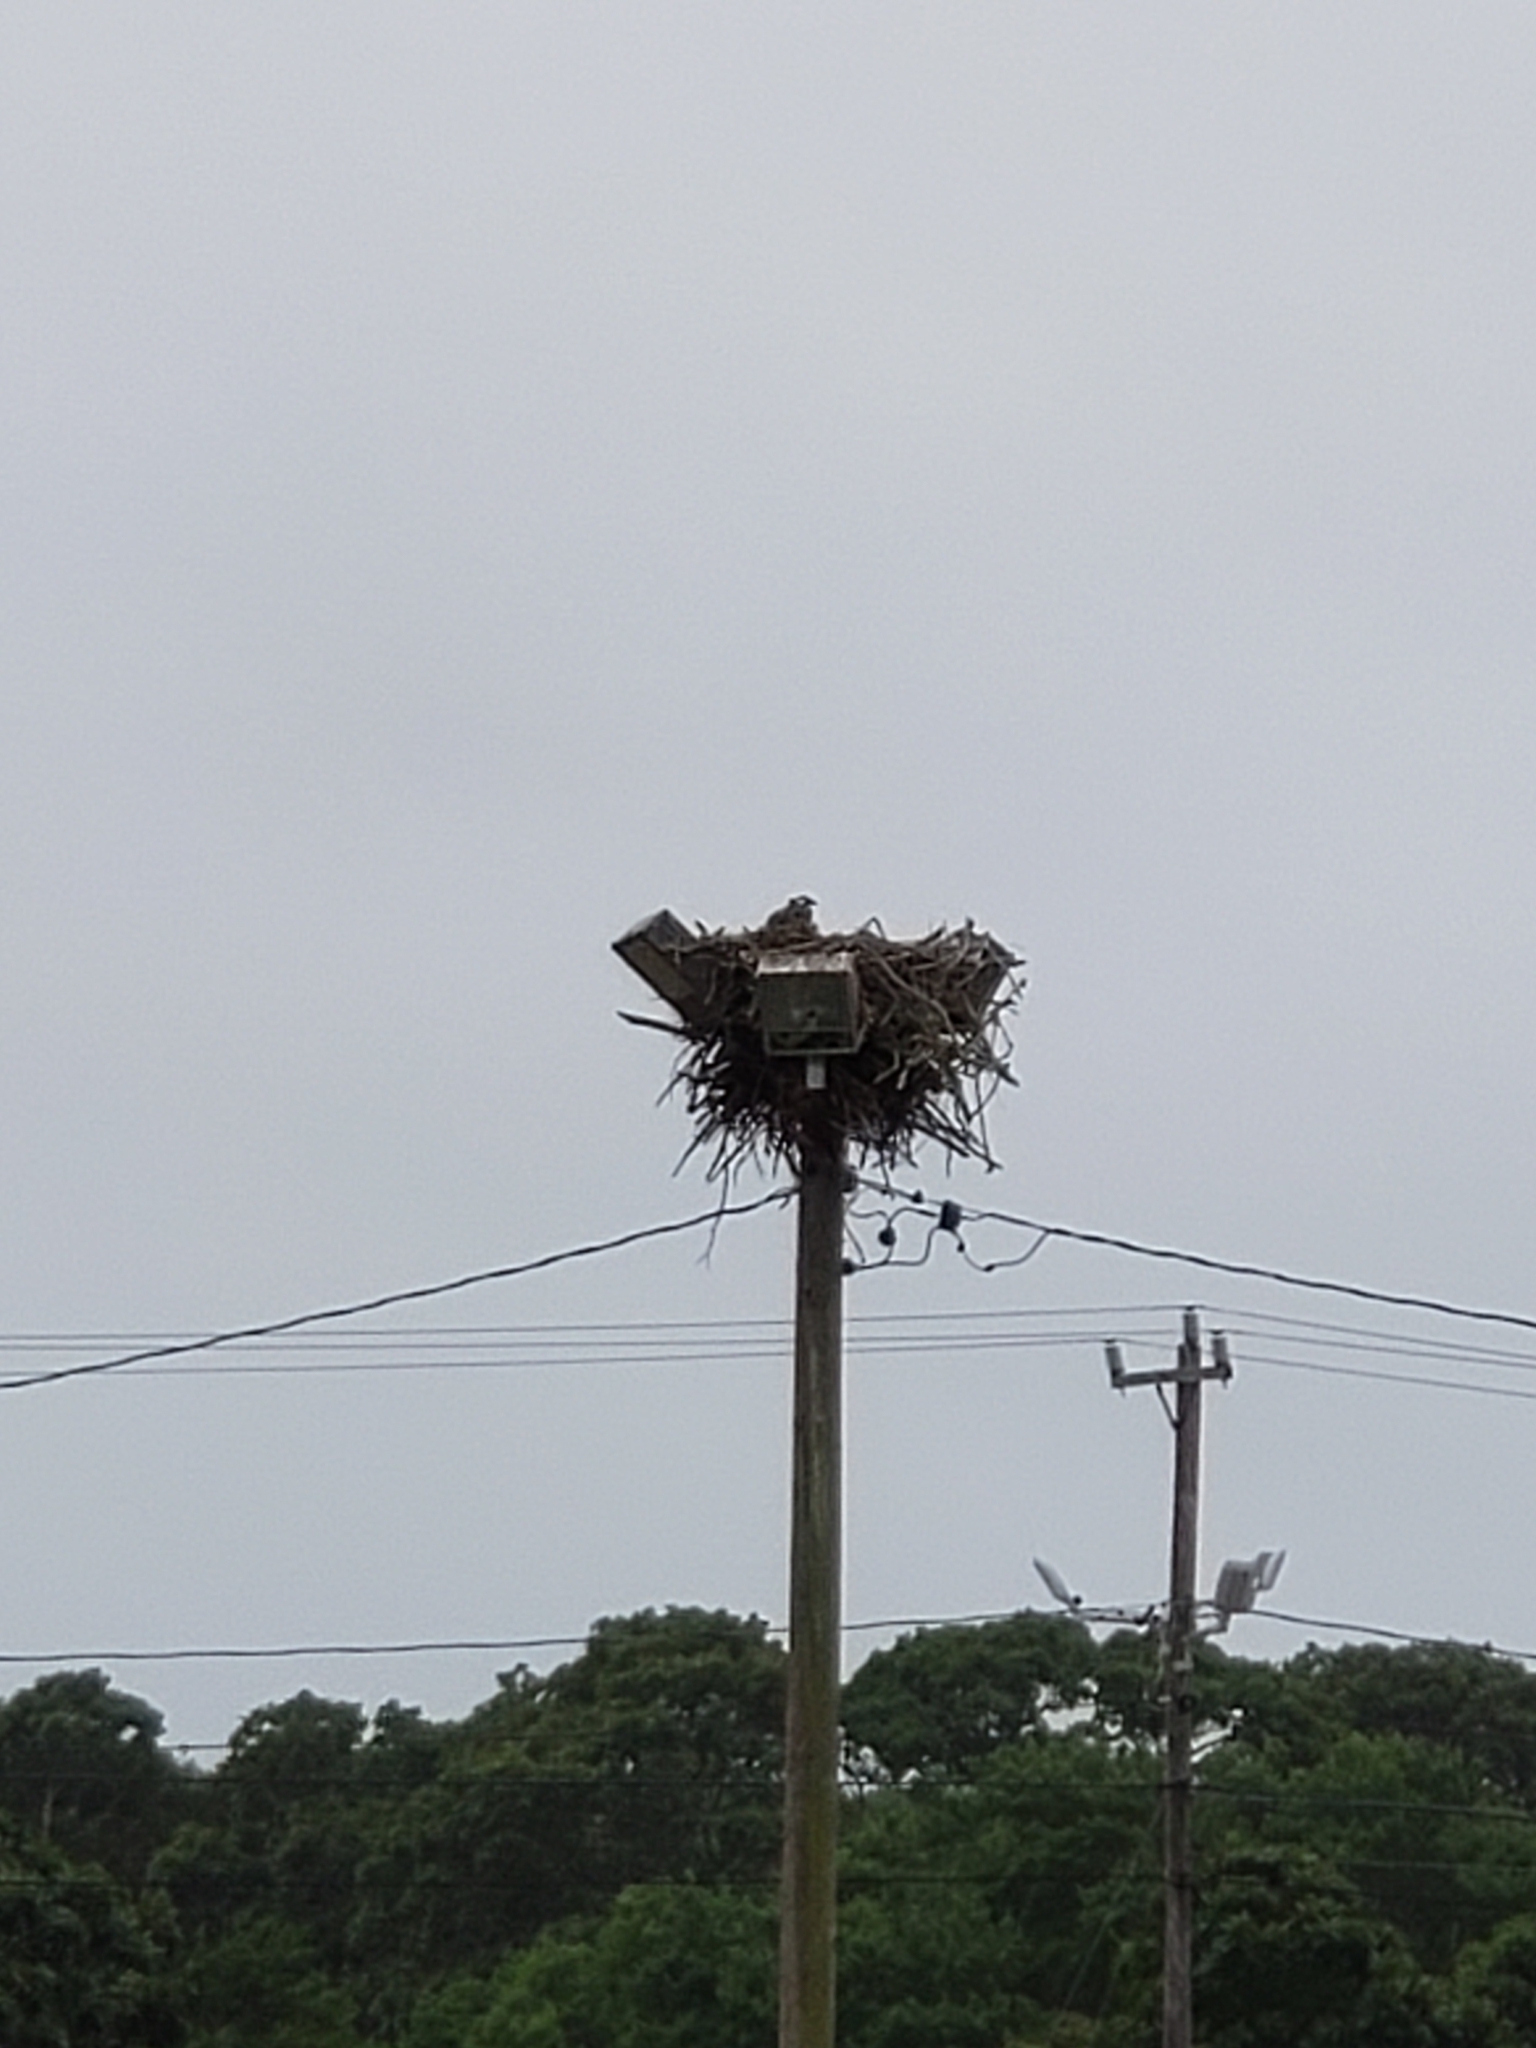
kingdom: Animalia
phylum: Chordata
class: Aves
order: Accipitriformes
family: Pandionidae
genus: Pandion
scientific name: Pandion haliaetus
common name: Osprey
